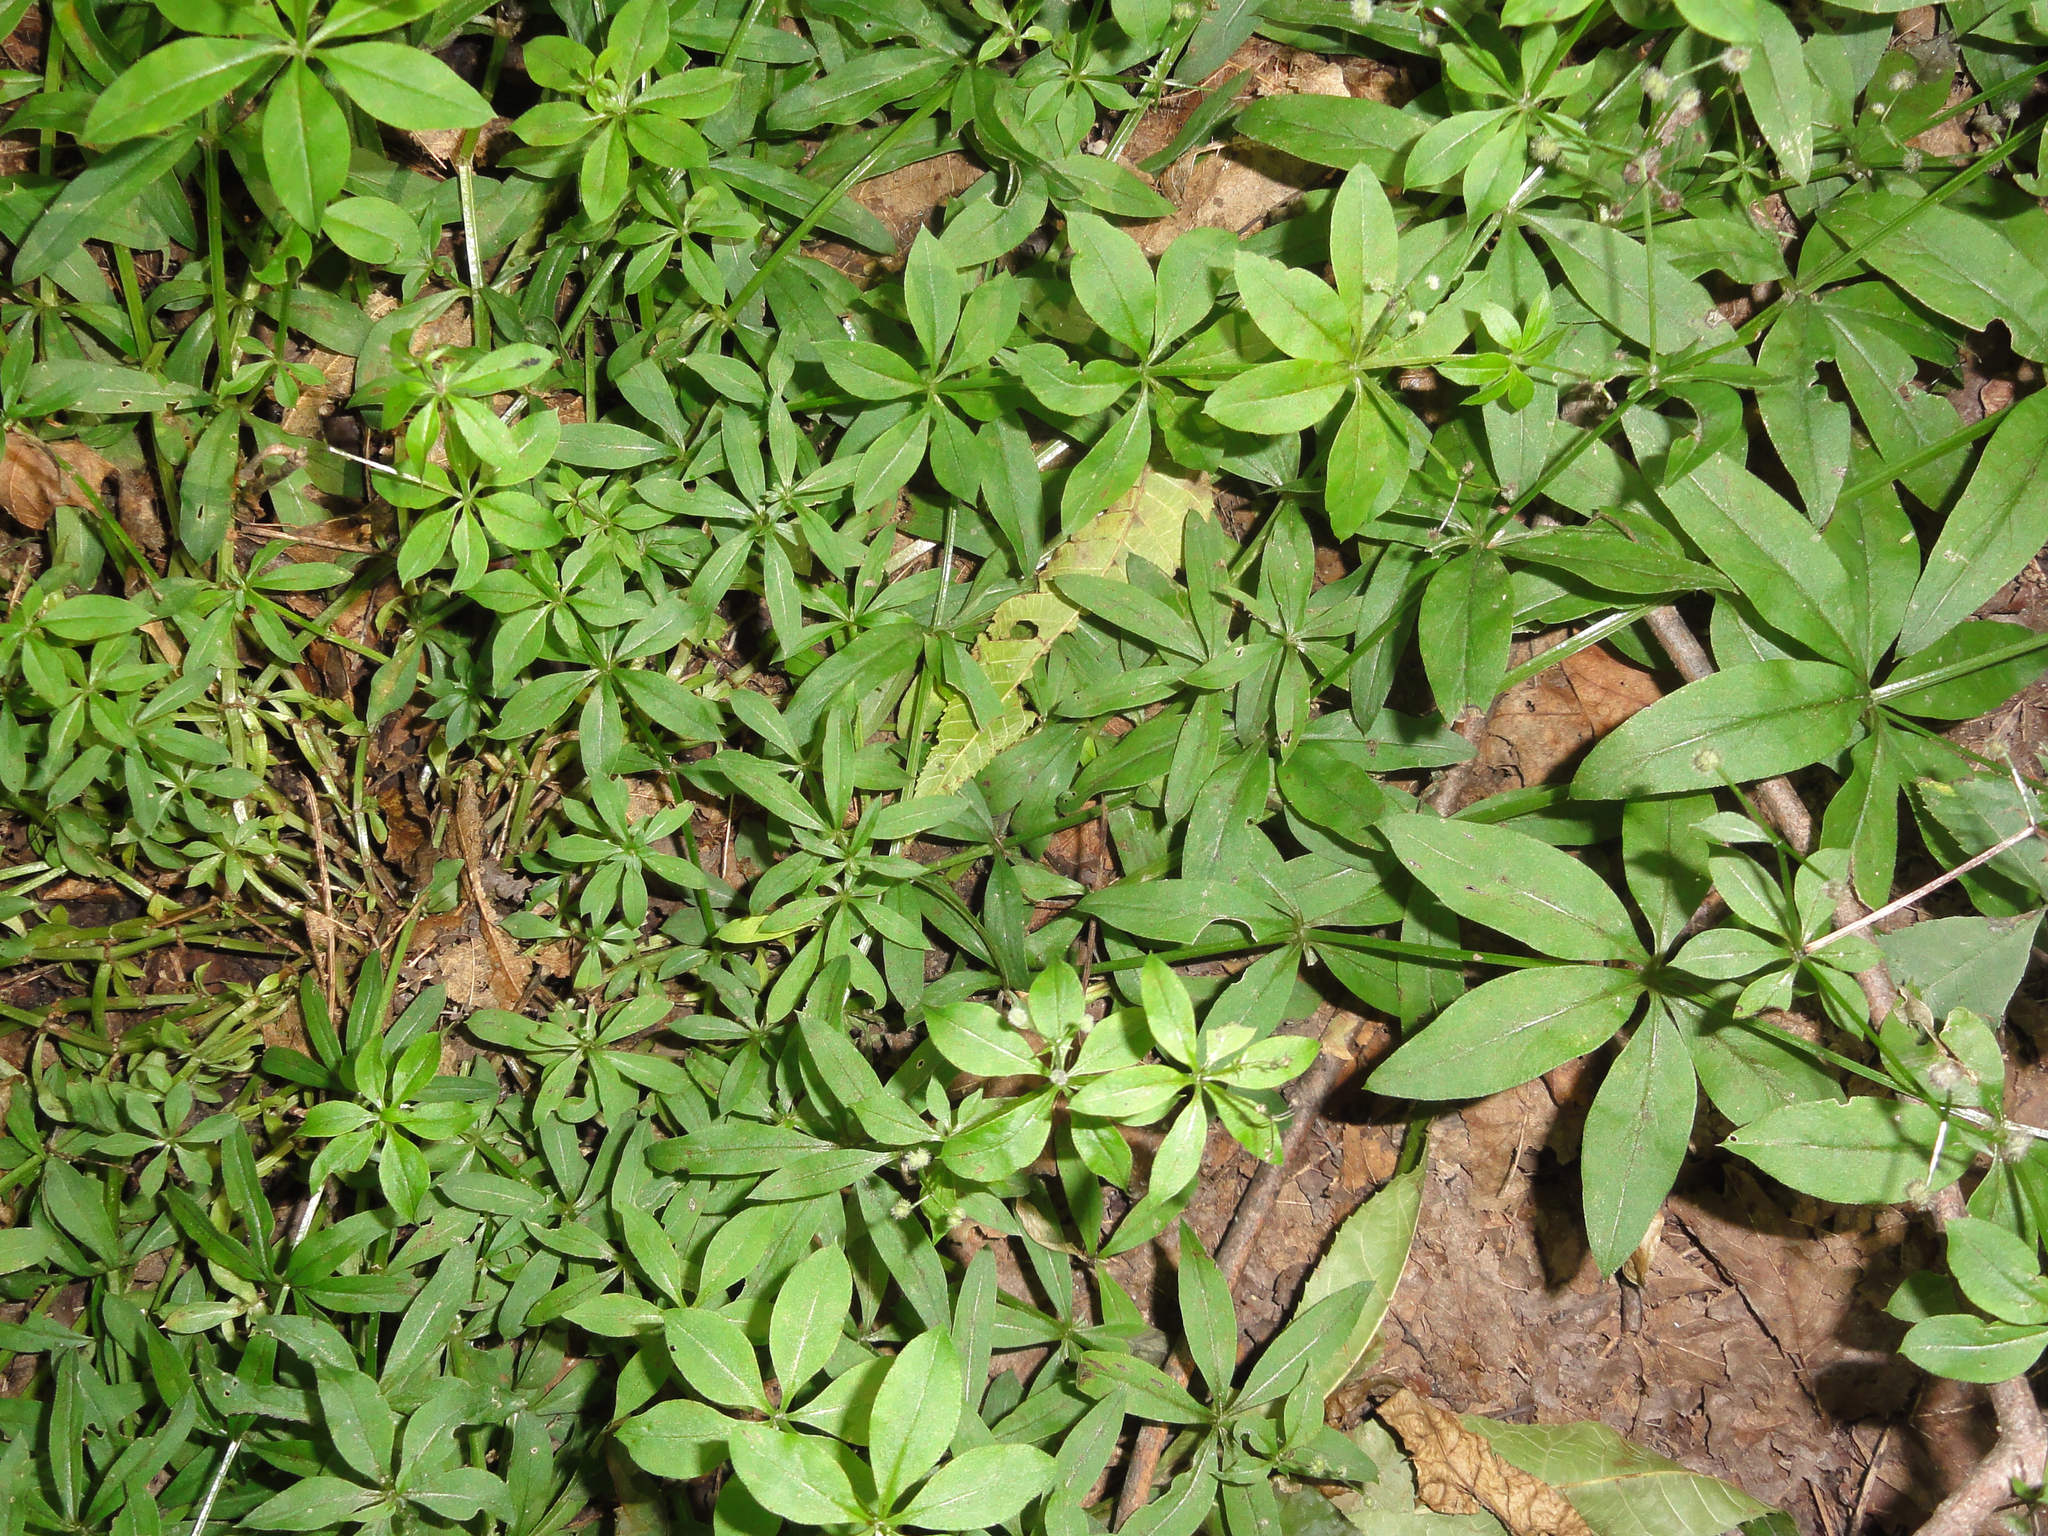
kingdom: Plantae
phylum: Tracheophyta
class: Magnoliopsida
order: Gentianales
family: Rubiaceae
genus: Galium
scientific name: Galium triflorum
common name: Fragrant bedstraw
